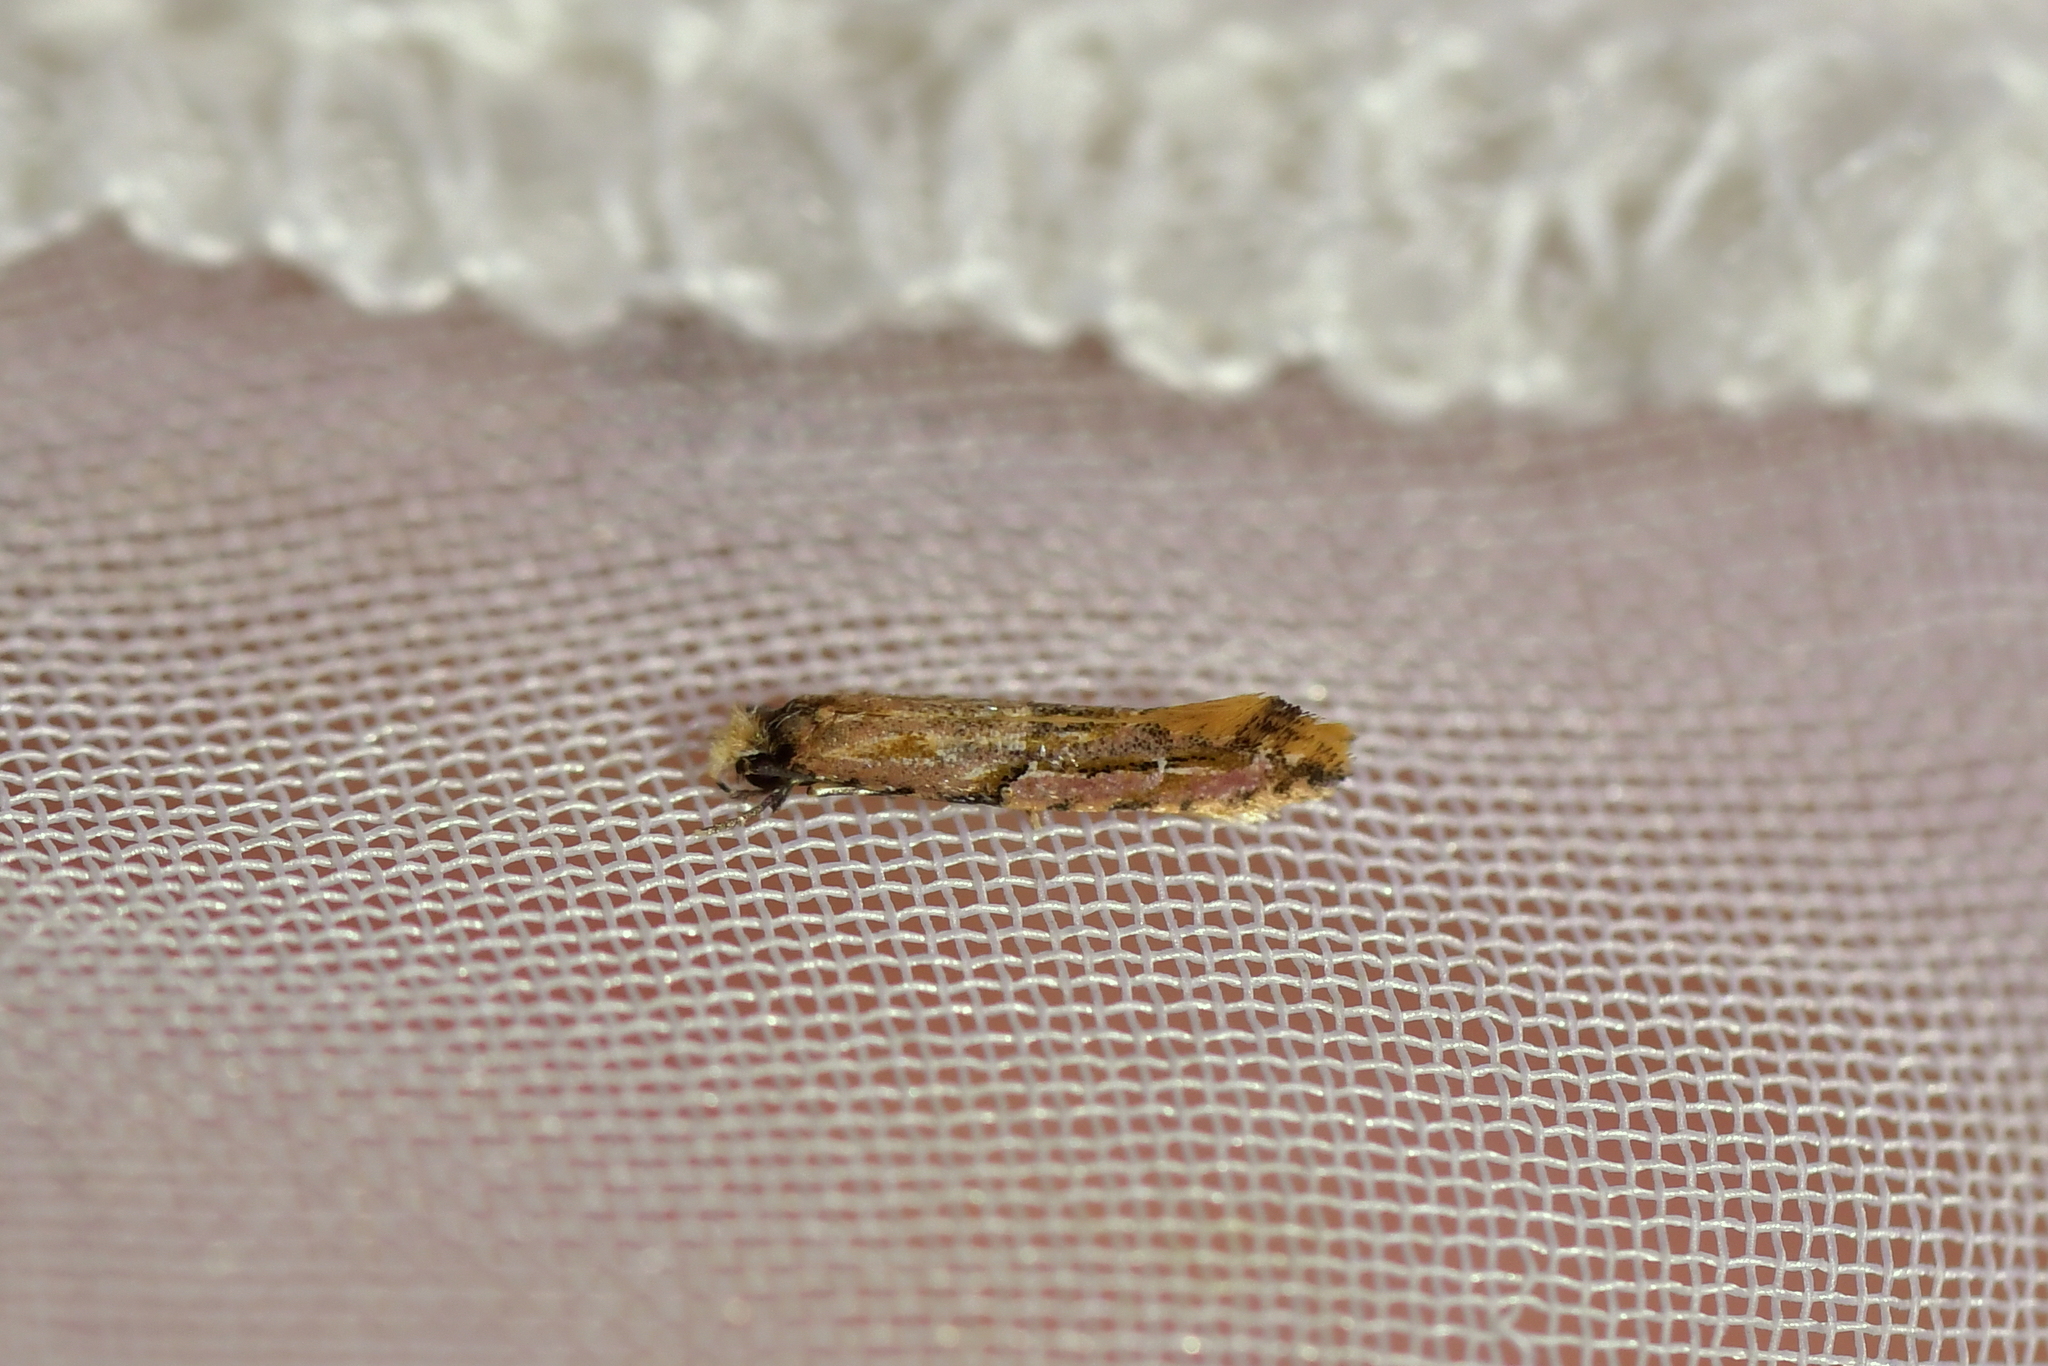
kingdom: Animalia
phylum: Arthropoda
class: Insecta
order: Lepidoptera
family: Tineidae
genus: Crypsitricha
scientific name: Crypsitricha roseata
